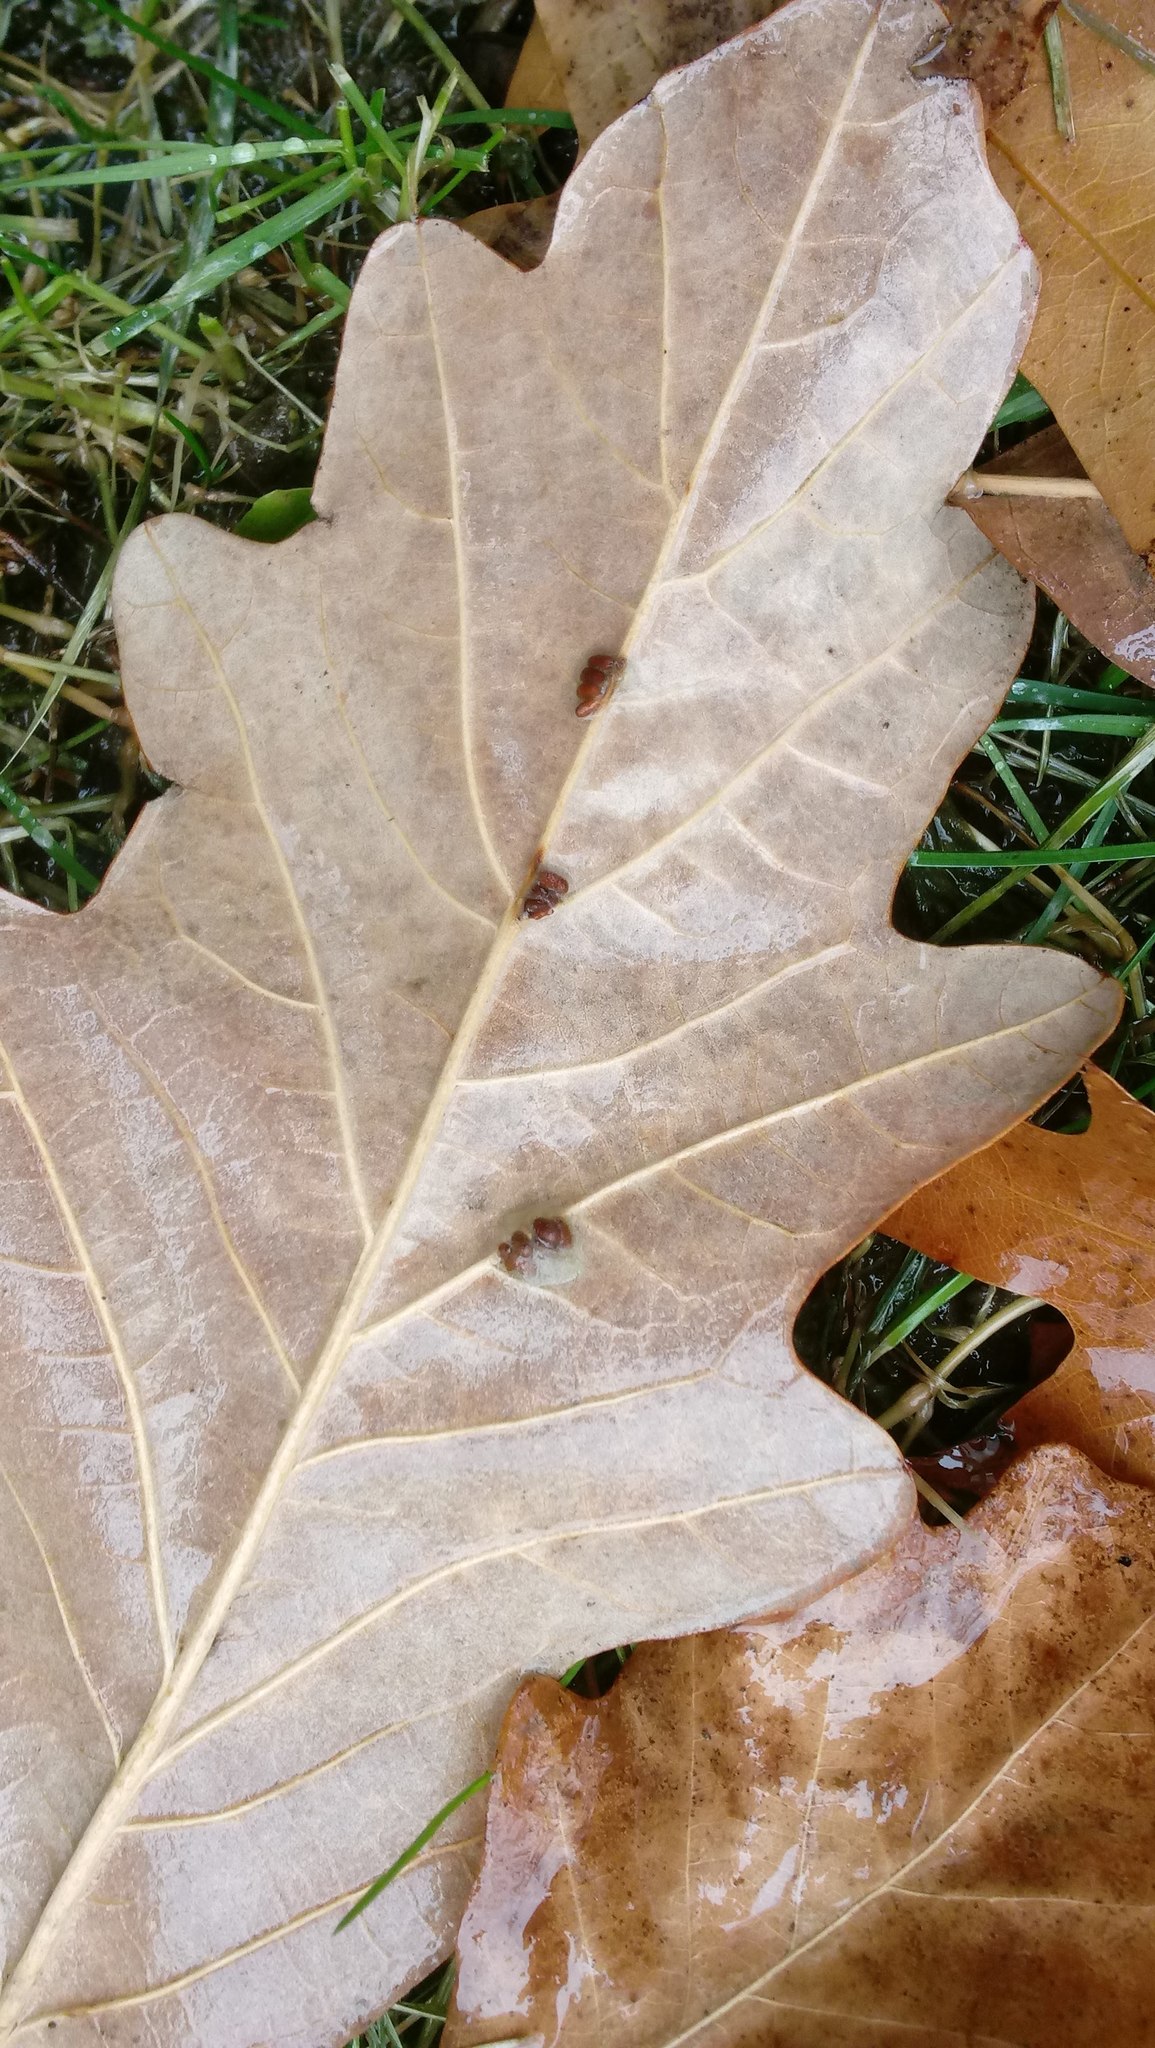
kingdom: Animalia
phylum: Arthropoda
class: Insecta
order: Hymenoptera
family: Cynipidae
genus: Andricus
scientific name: Andricus Druon ignotum
